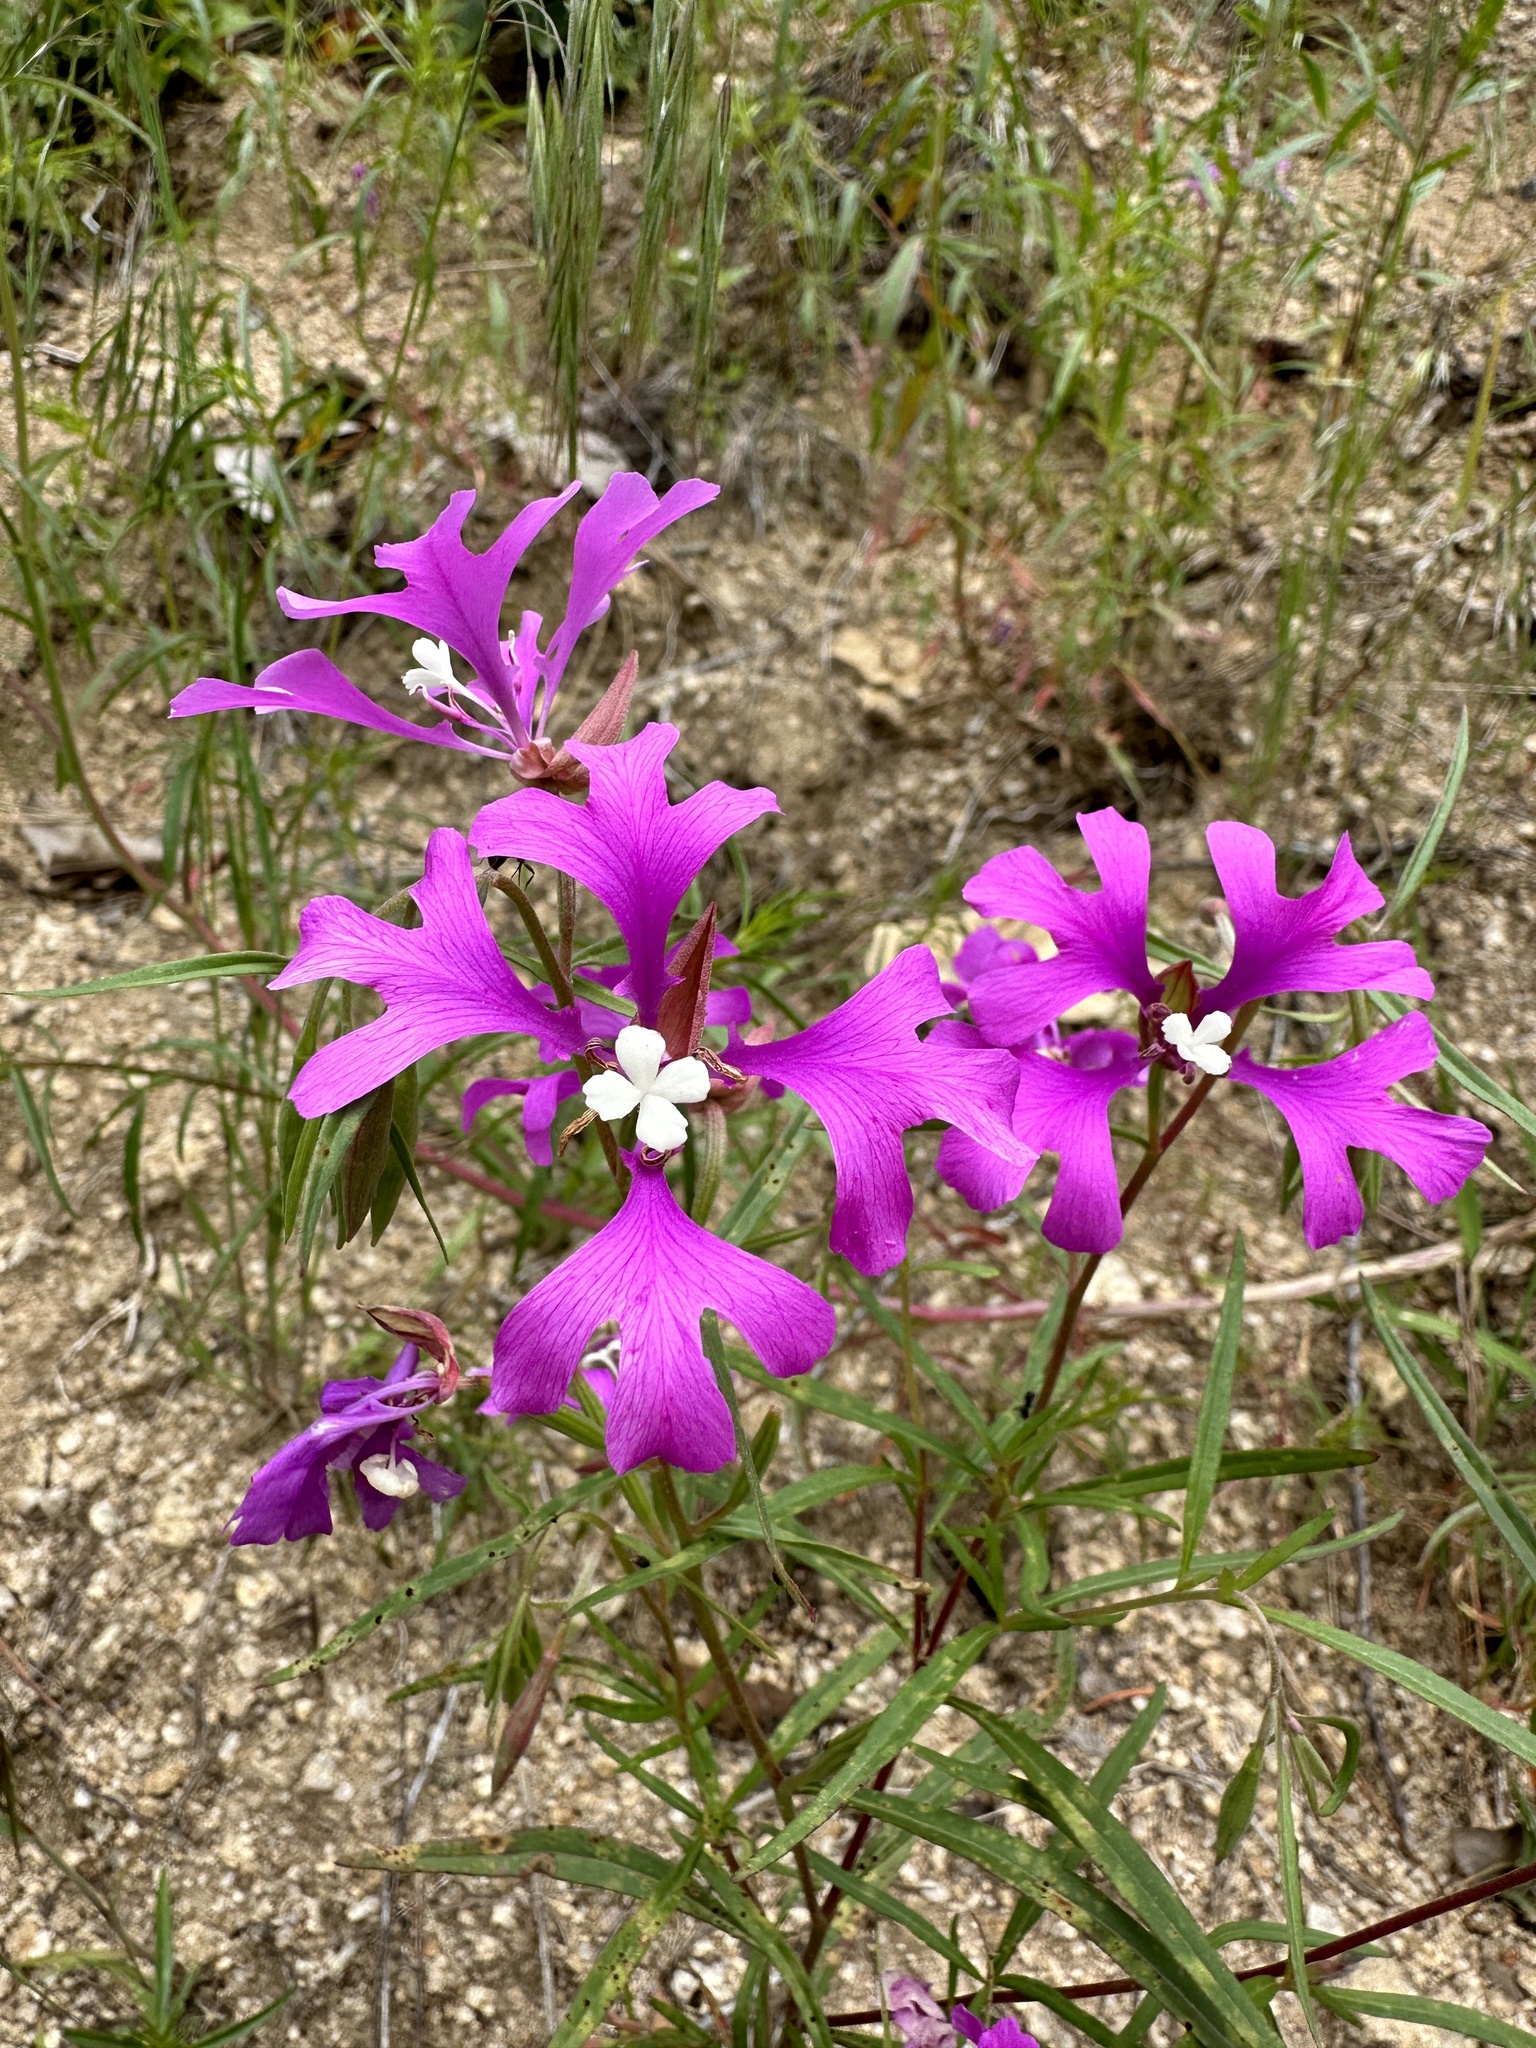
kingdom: Plantae
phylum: Tracheophyta
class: Magnoliopsida
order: Myrtales
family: Onagraceae
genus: Clarkia
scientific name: Clarkia pulchella
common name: Deer horn
